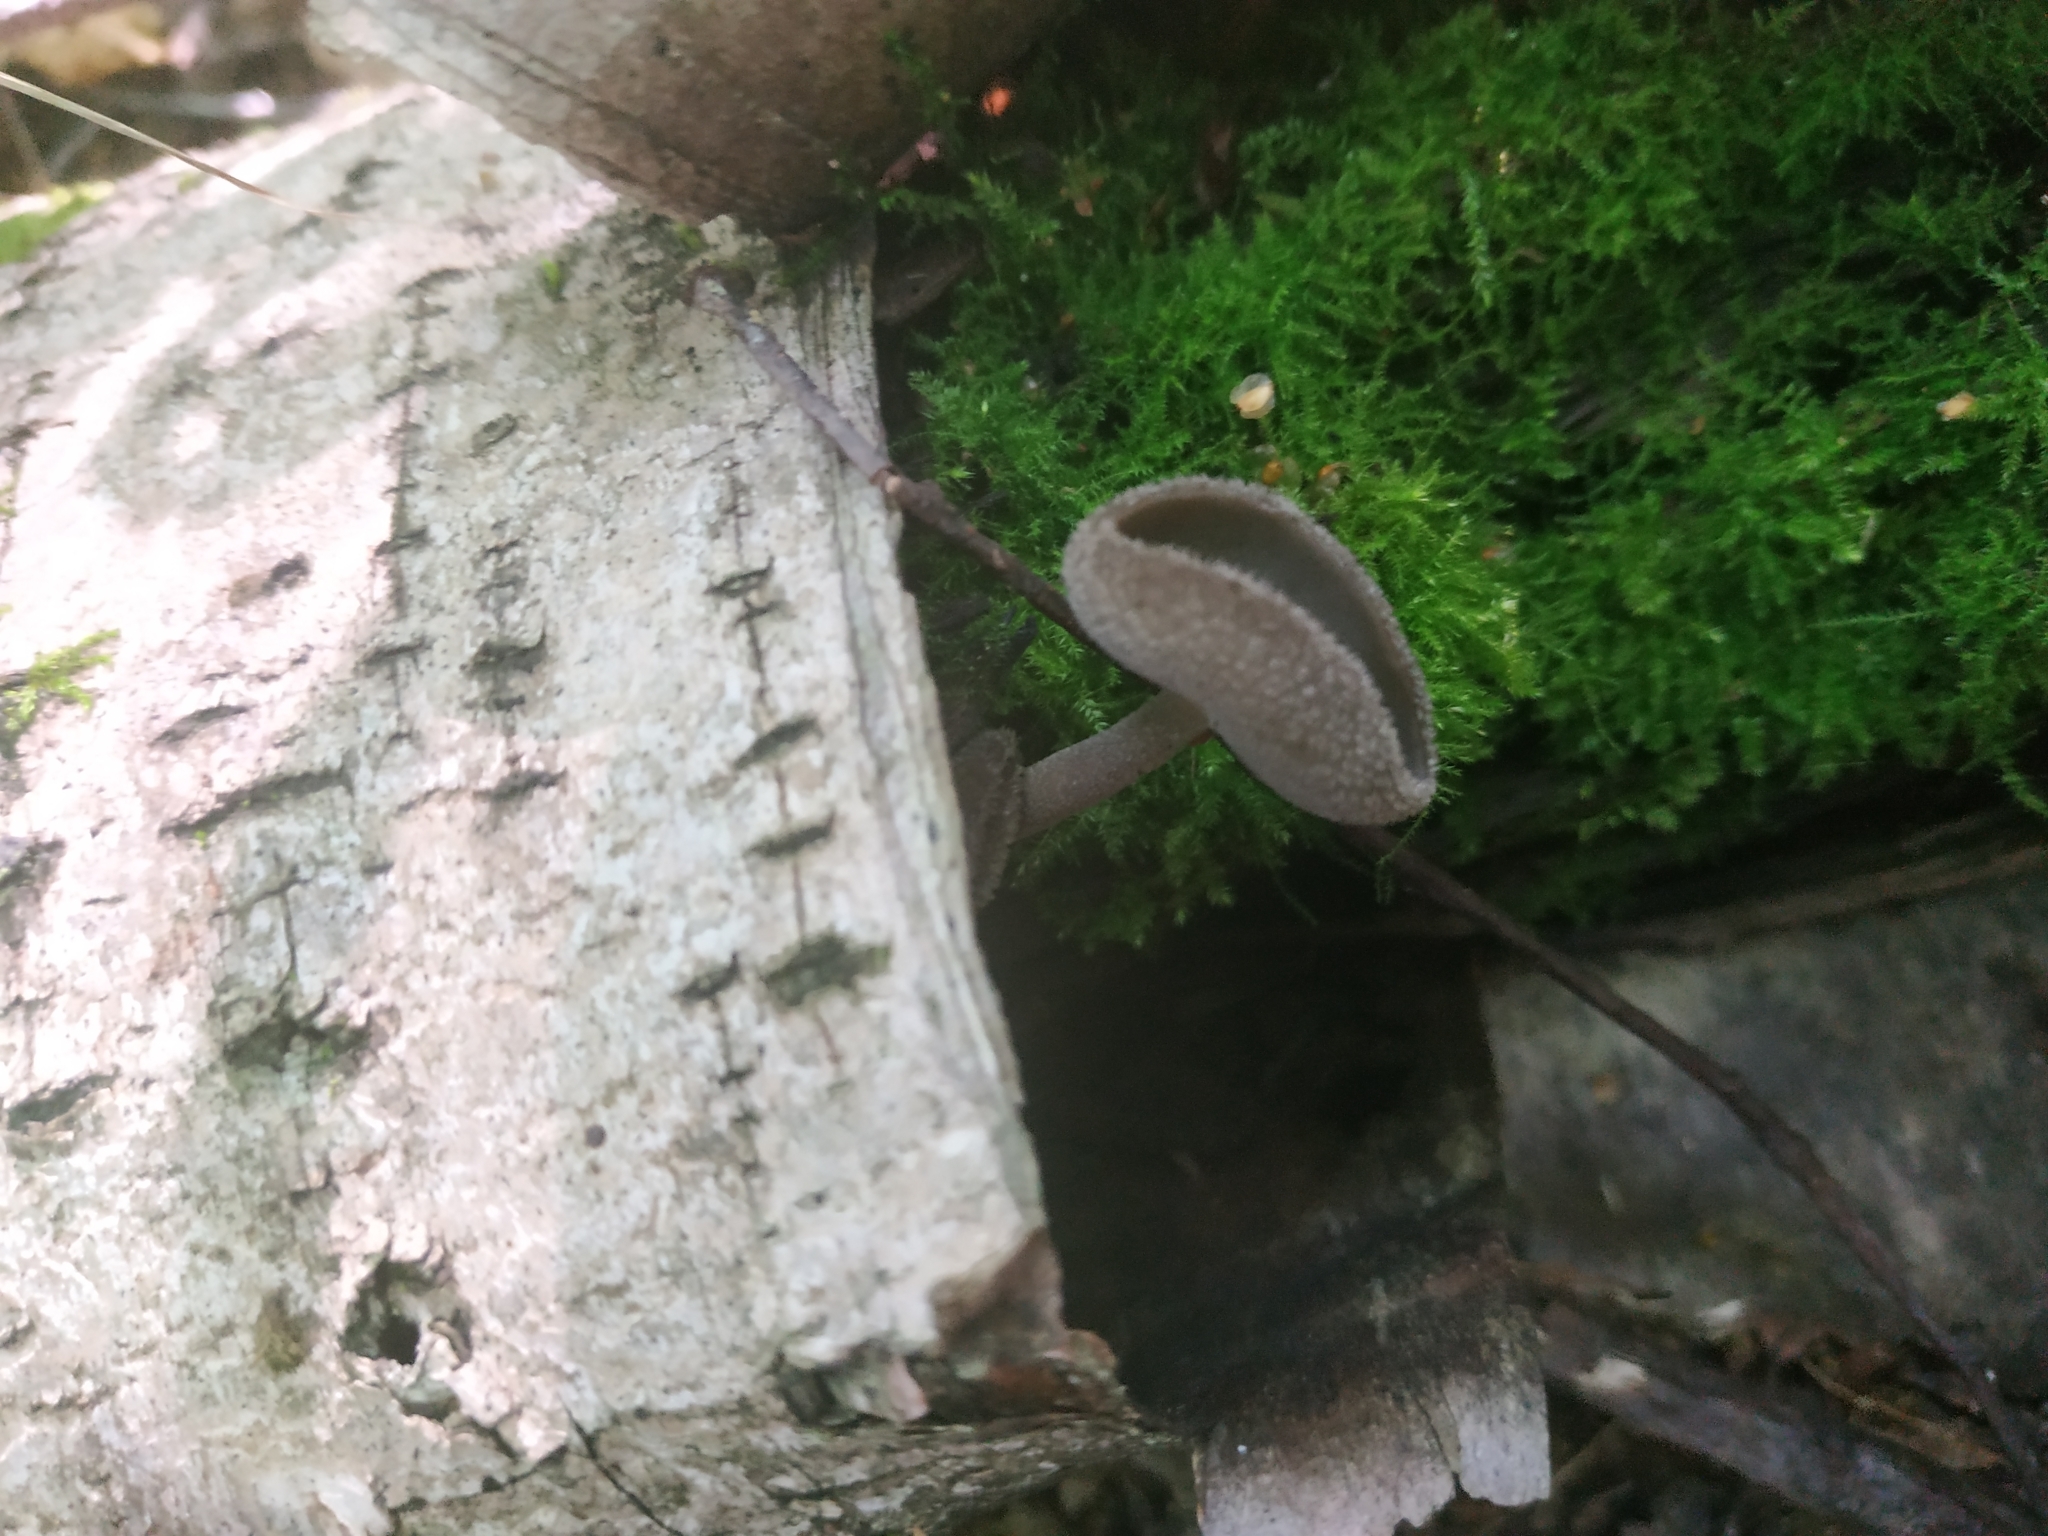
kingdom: Fungi
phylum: Ascomycota
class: Pezizomycetes
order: Pezizales
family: Helvellaceae
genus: Helvella
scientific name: Helvella macropus
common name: Felt saddle
